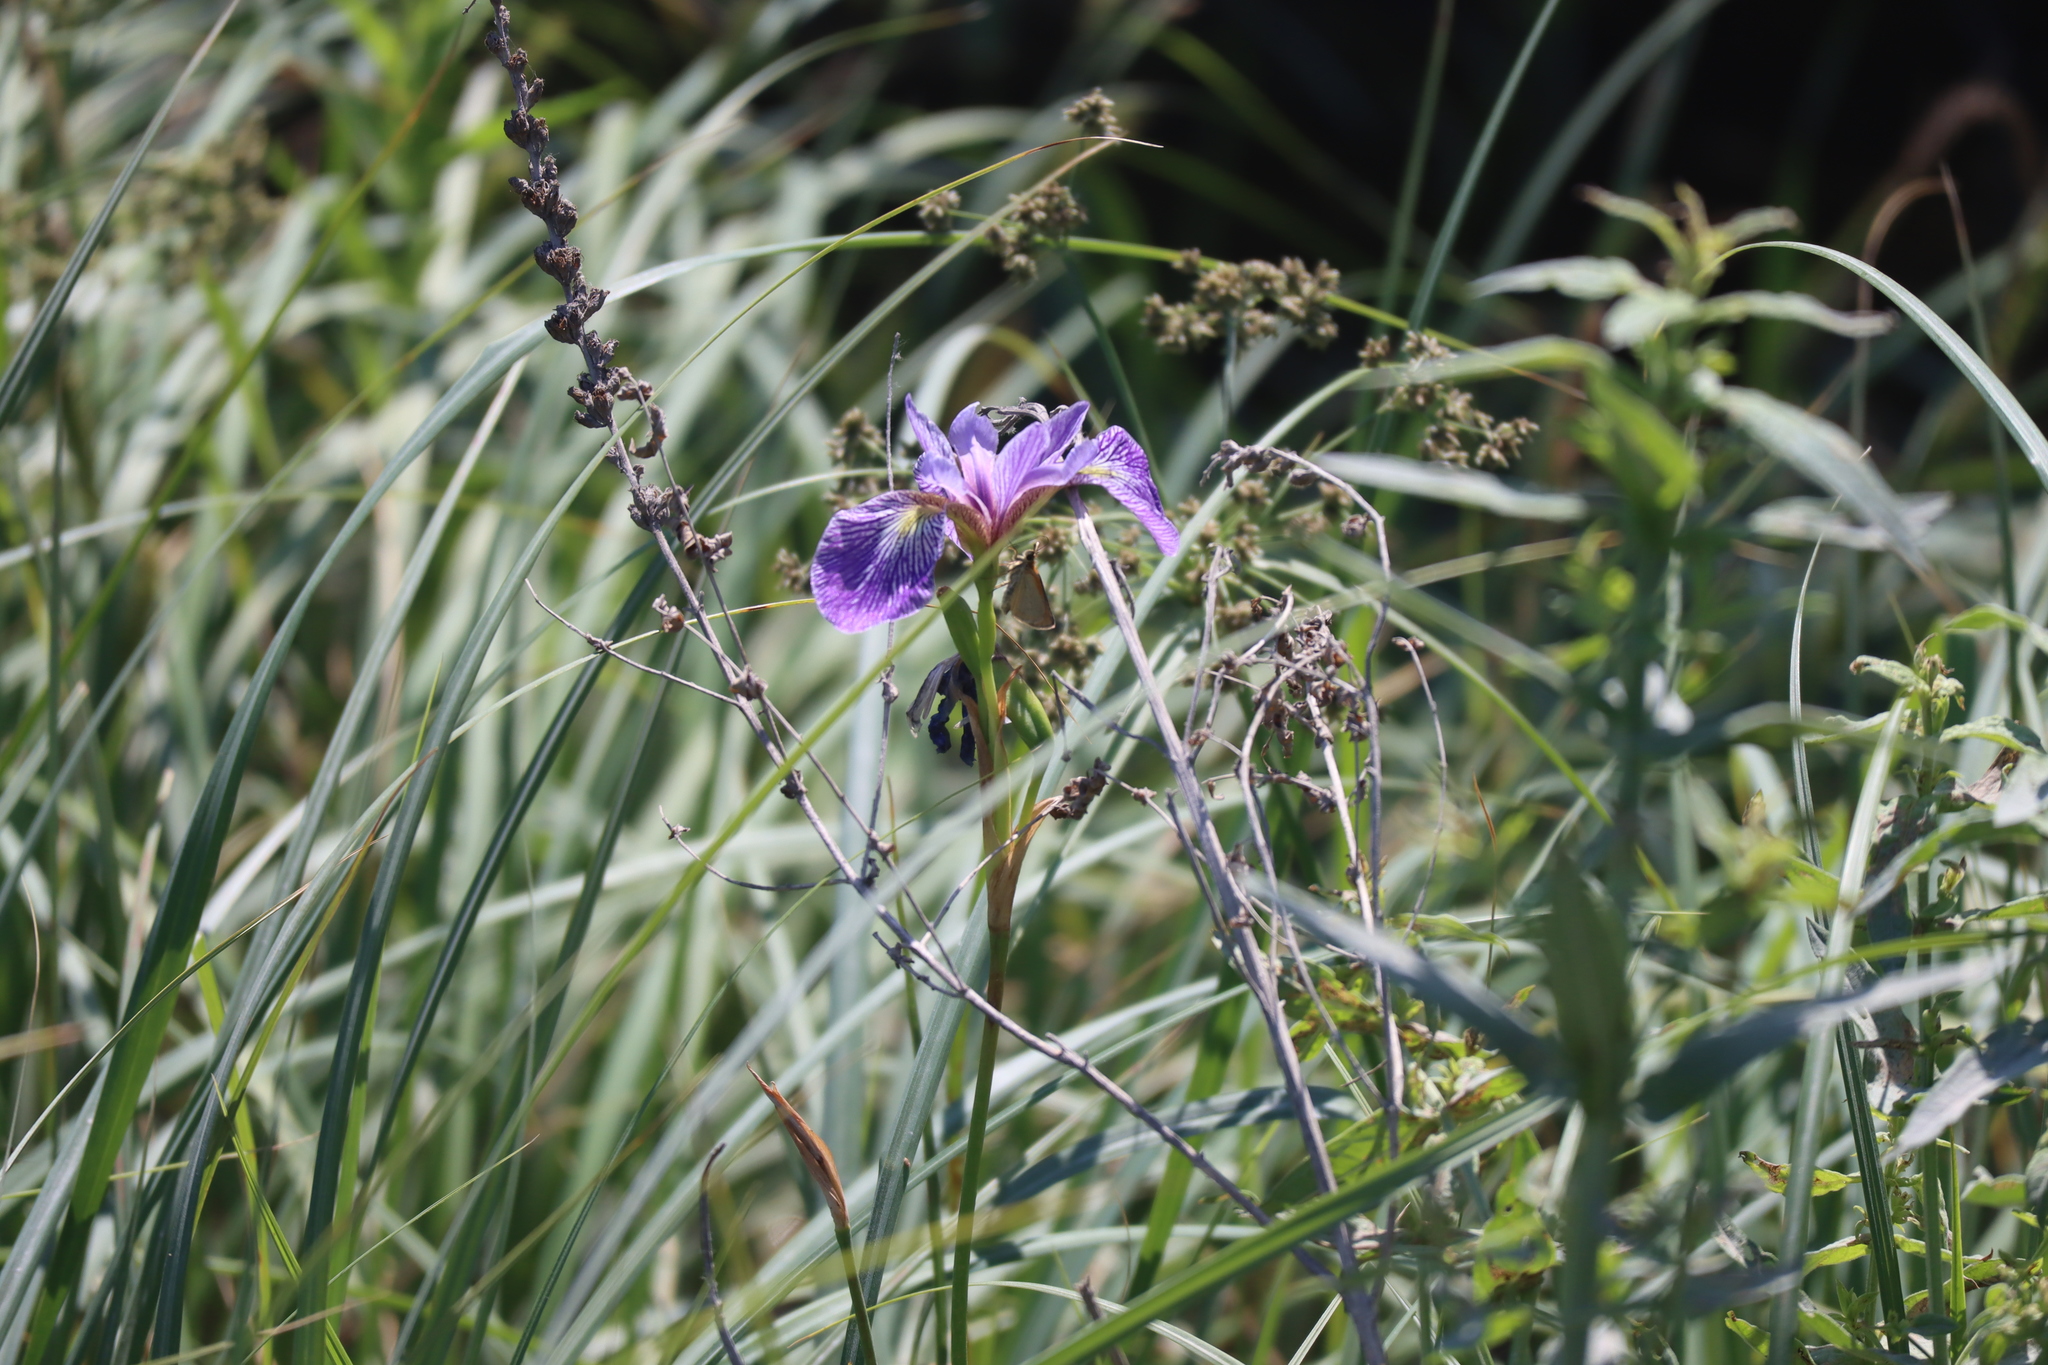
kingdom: Plantae
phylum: Tracheophyta
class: Liliopsida
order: Asparagales
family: Iridaceae
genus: Iris
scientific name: Iris versicolor
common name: Purple iris
